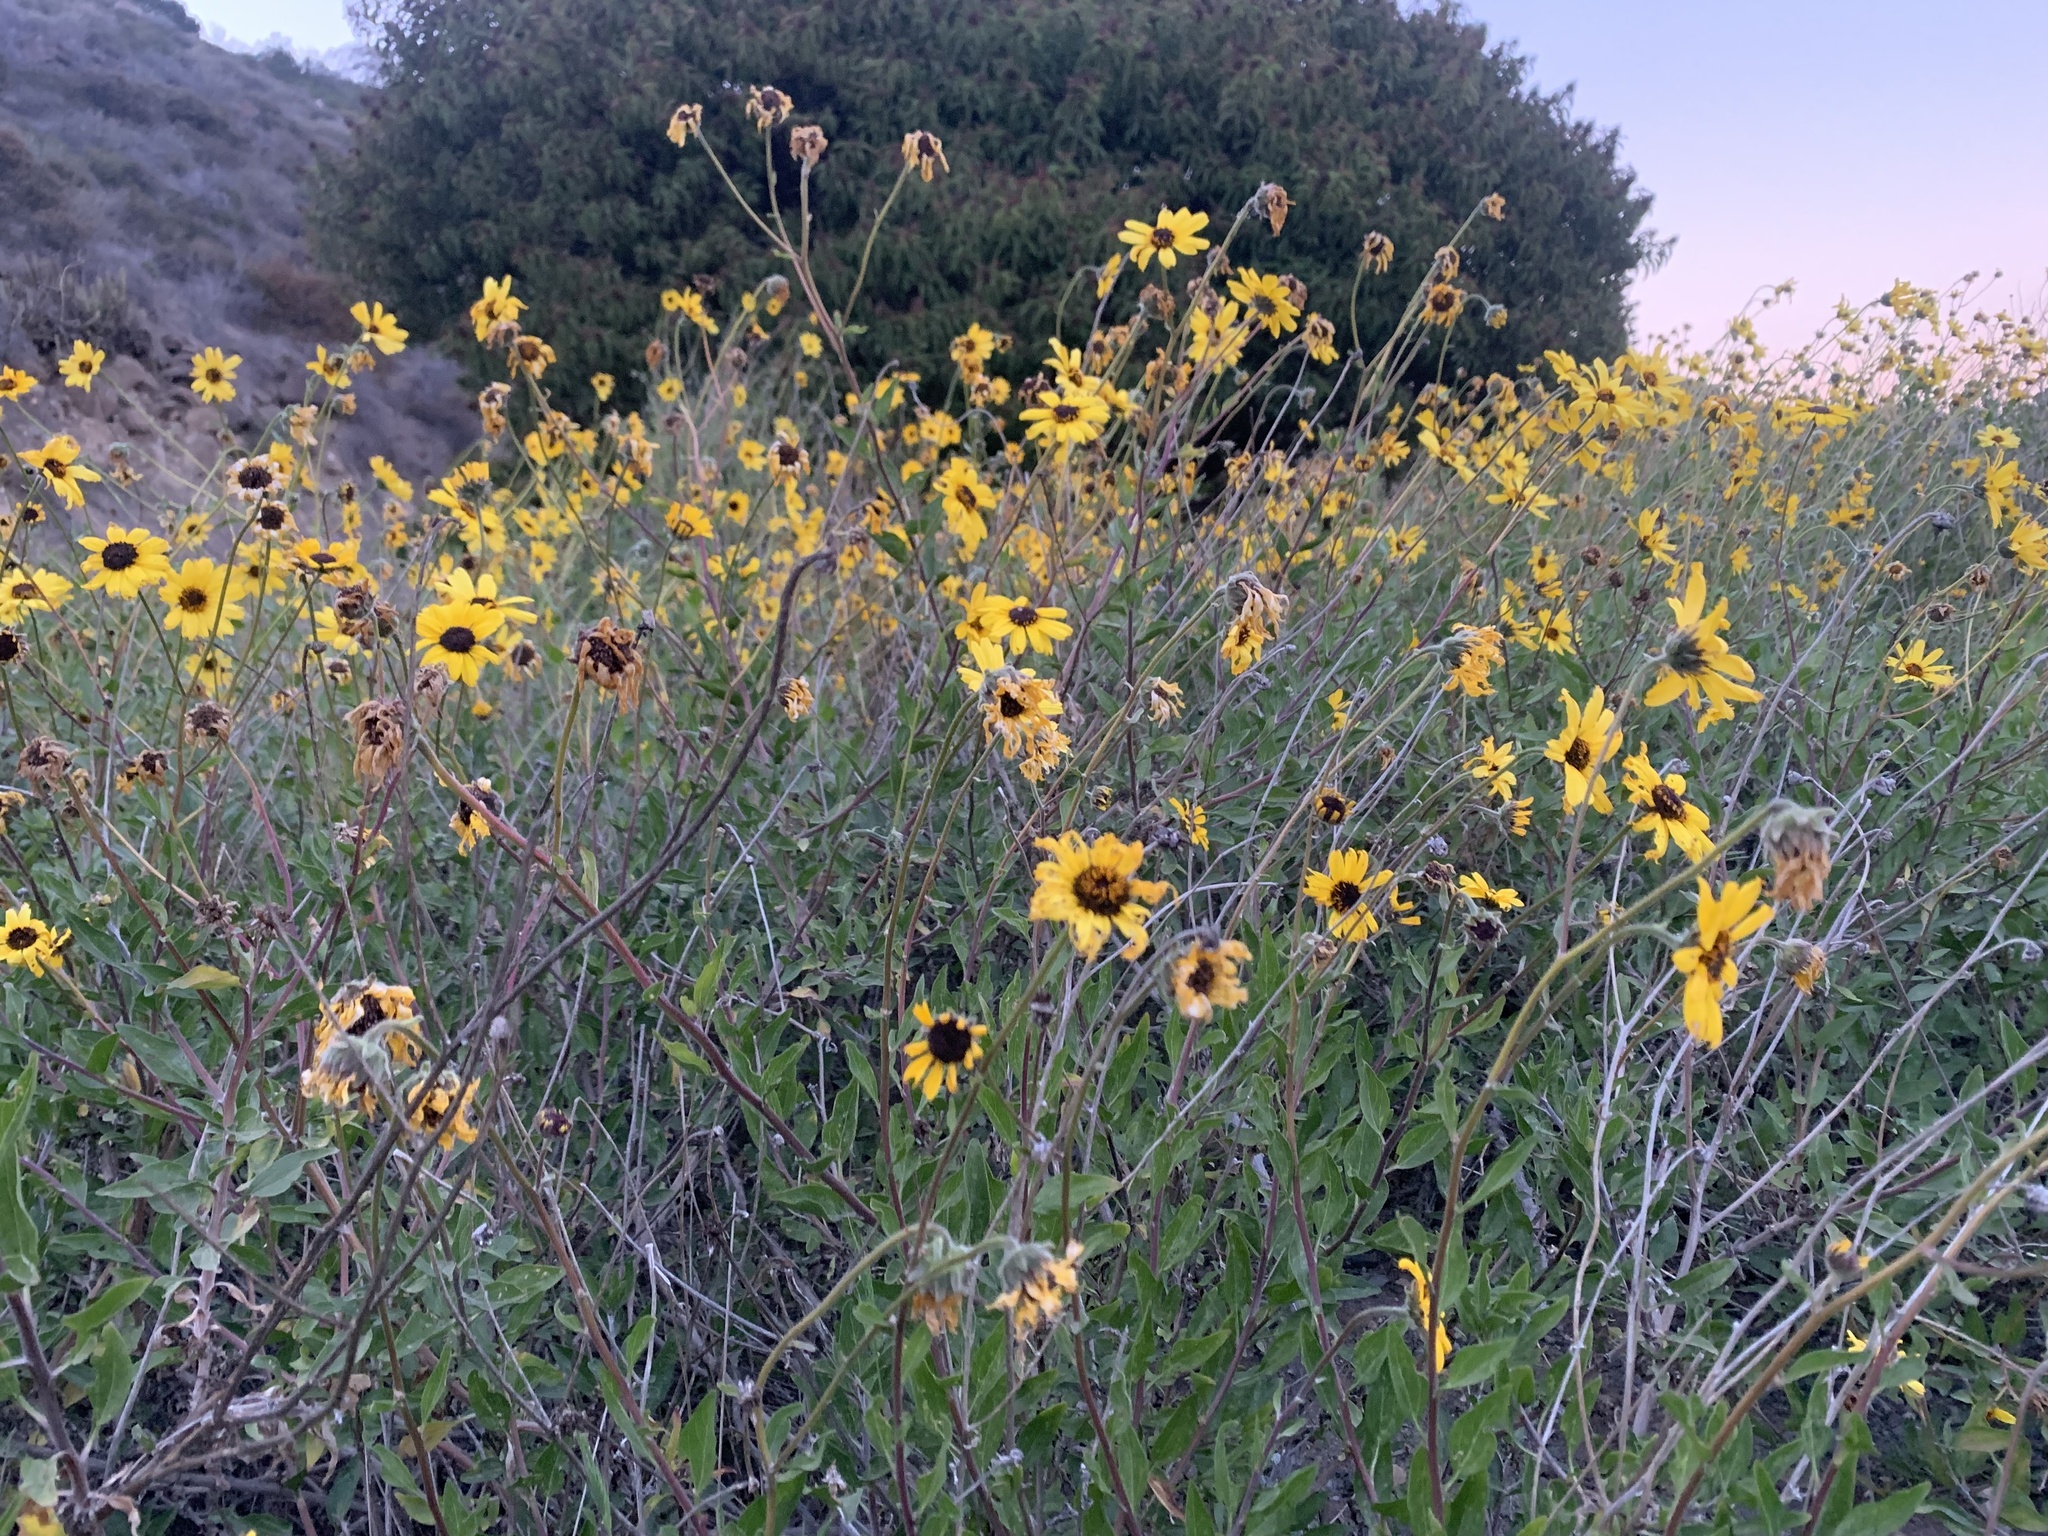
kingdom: Plantae
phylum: Tracheophyta
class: Magnoliopsida
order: Asterales
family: Asteraceae
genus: Encelia
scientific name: Encelia californica
